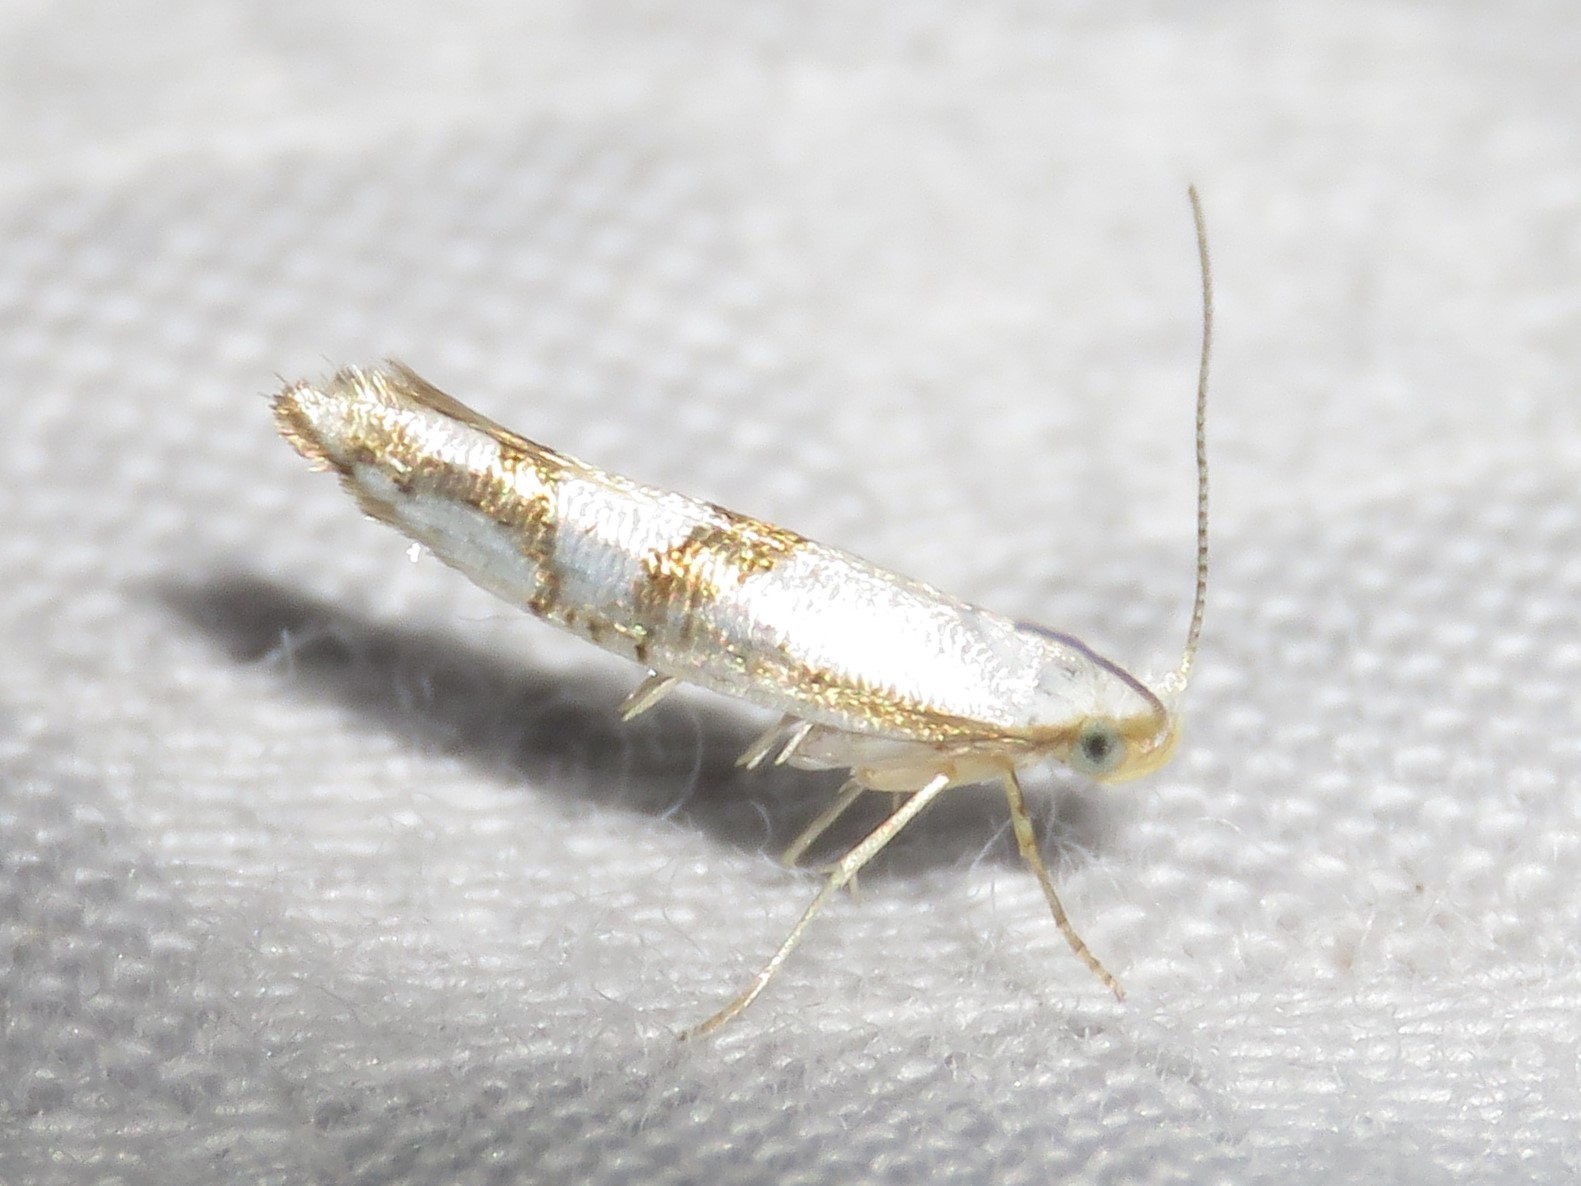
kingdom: Animalia
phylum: Arthropoda
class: Insecta
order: Lepidoptera
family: Argyresthiidae
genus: Argyresthia
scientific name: Argyresthia oreasella
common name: Cherry shoot borer moth
